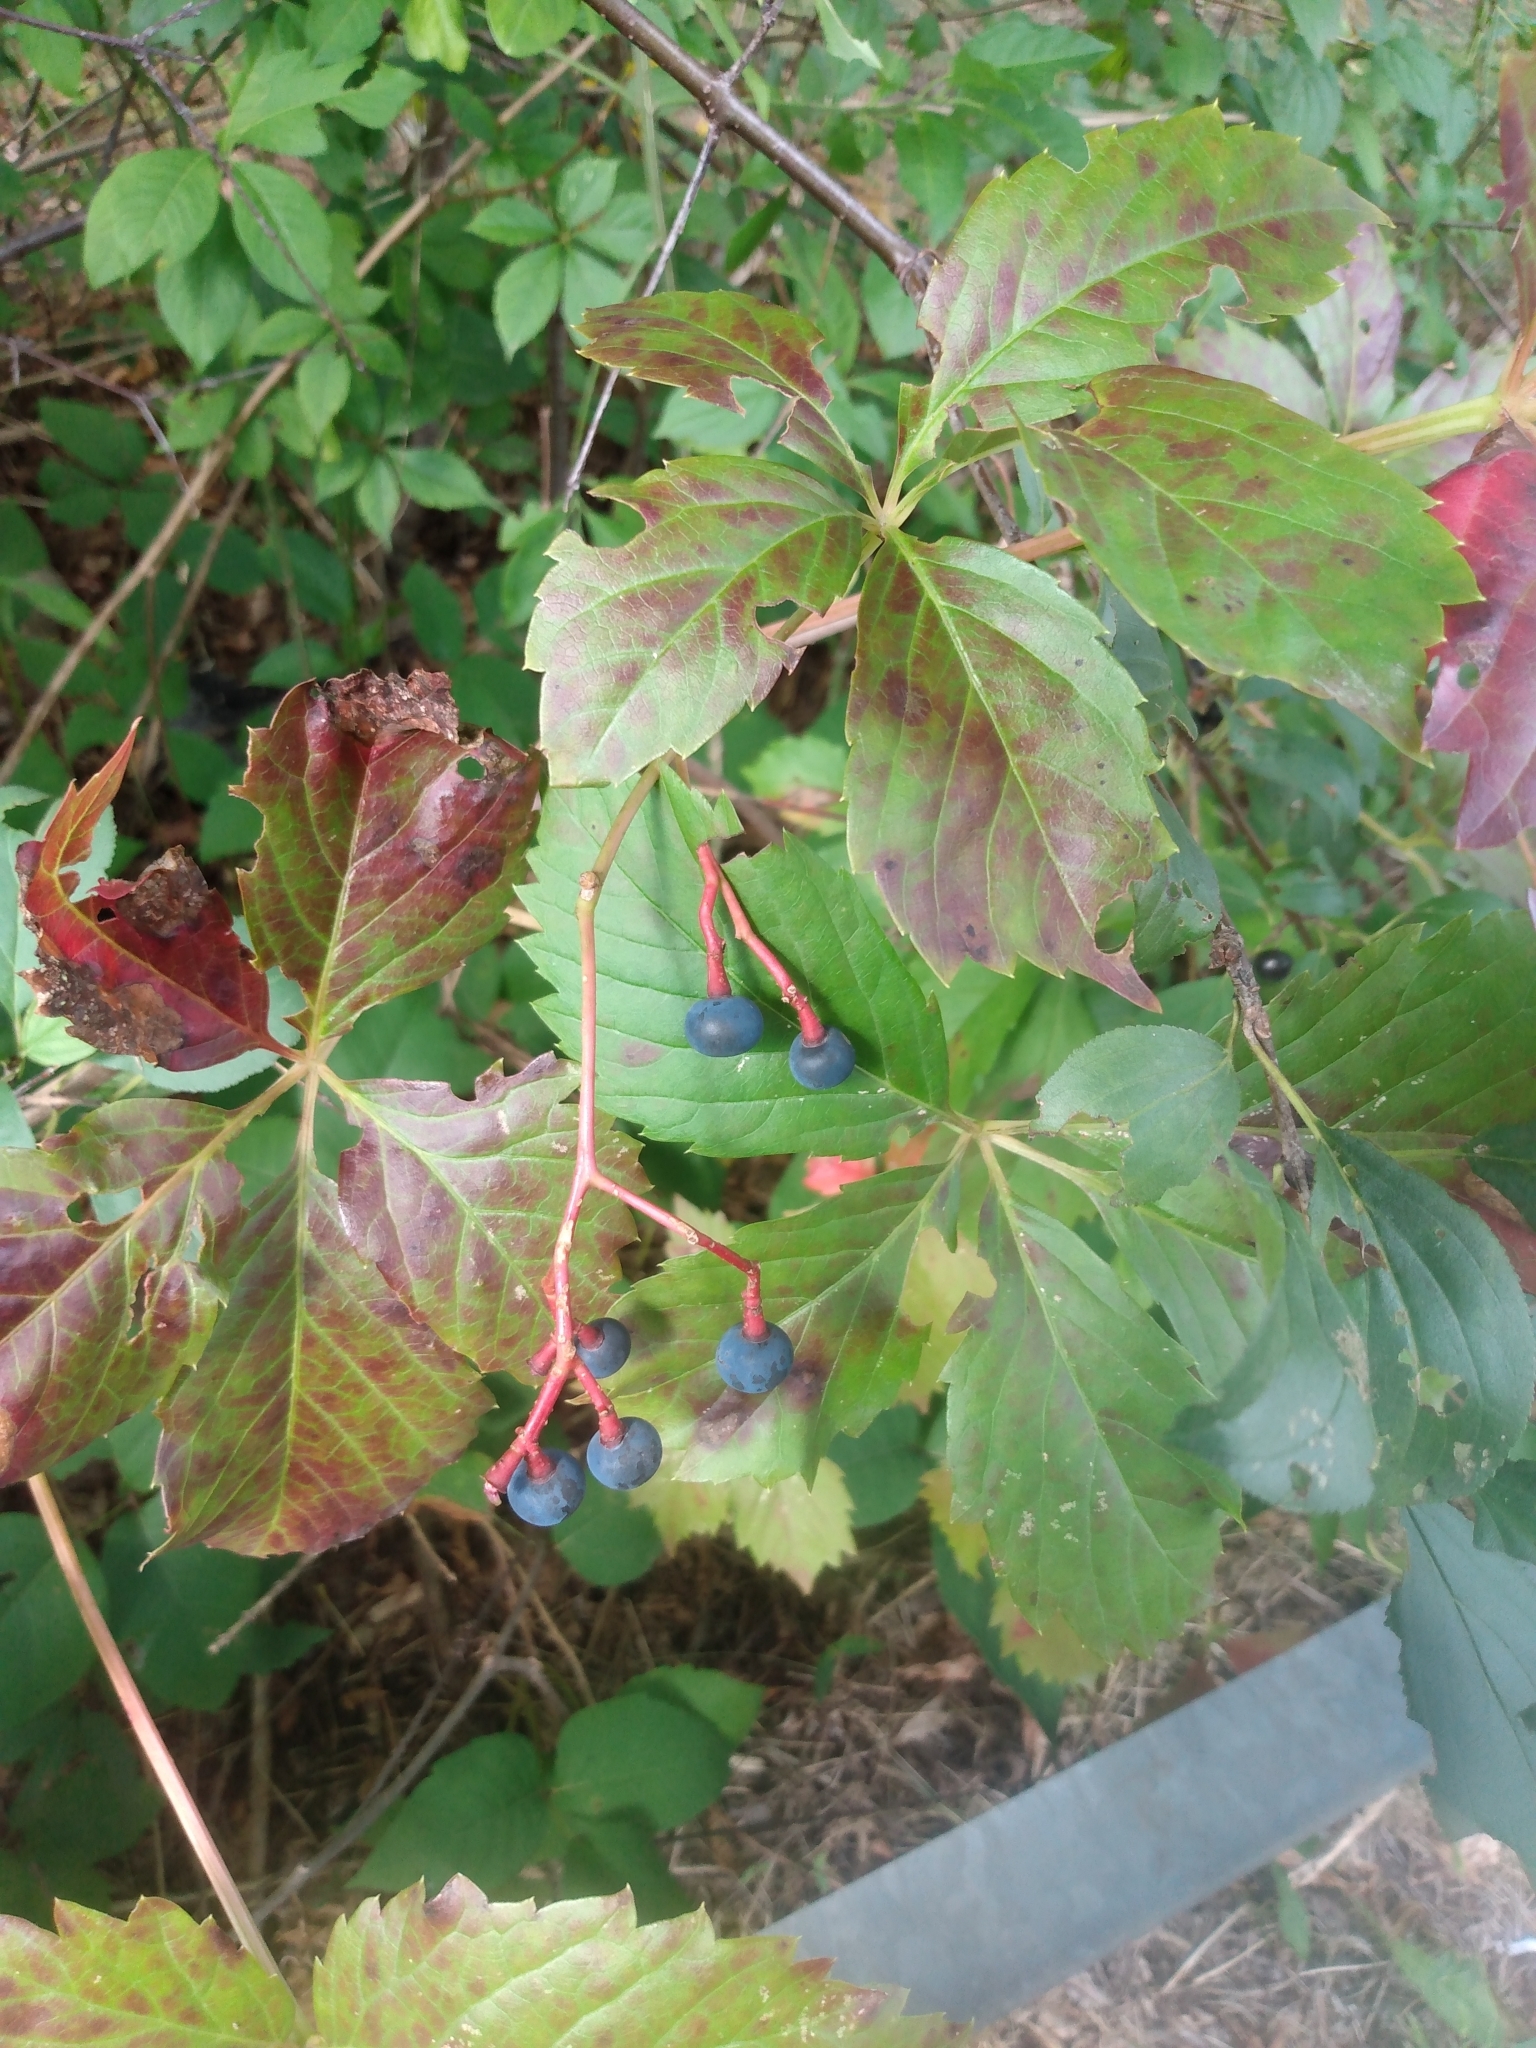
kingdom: Plantae
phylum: Tracheophyta
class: Magnoliopsida
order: Vitales
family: Vitaceae
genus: Parthenocissus
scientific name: Parthenocissus quinquefolia
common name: Virginia-creeper
